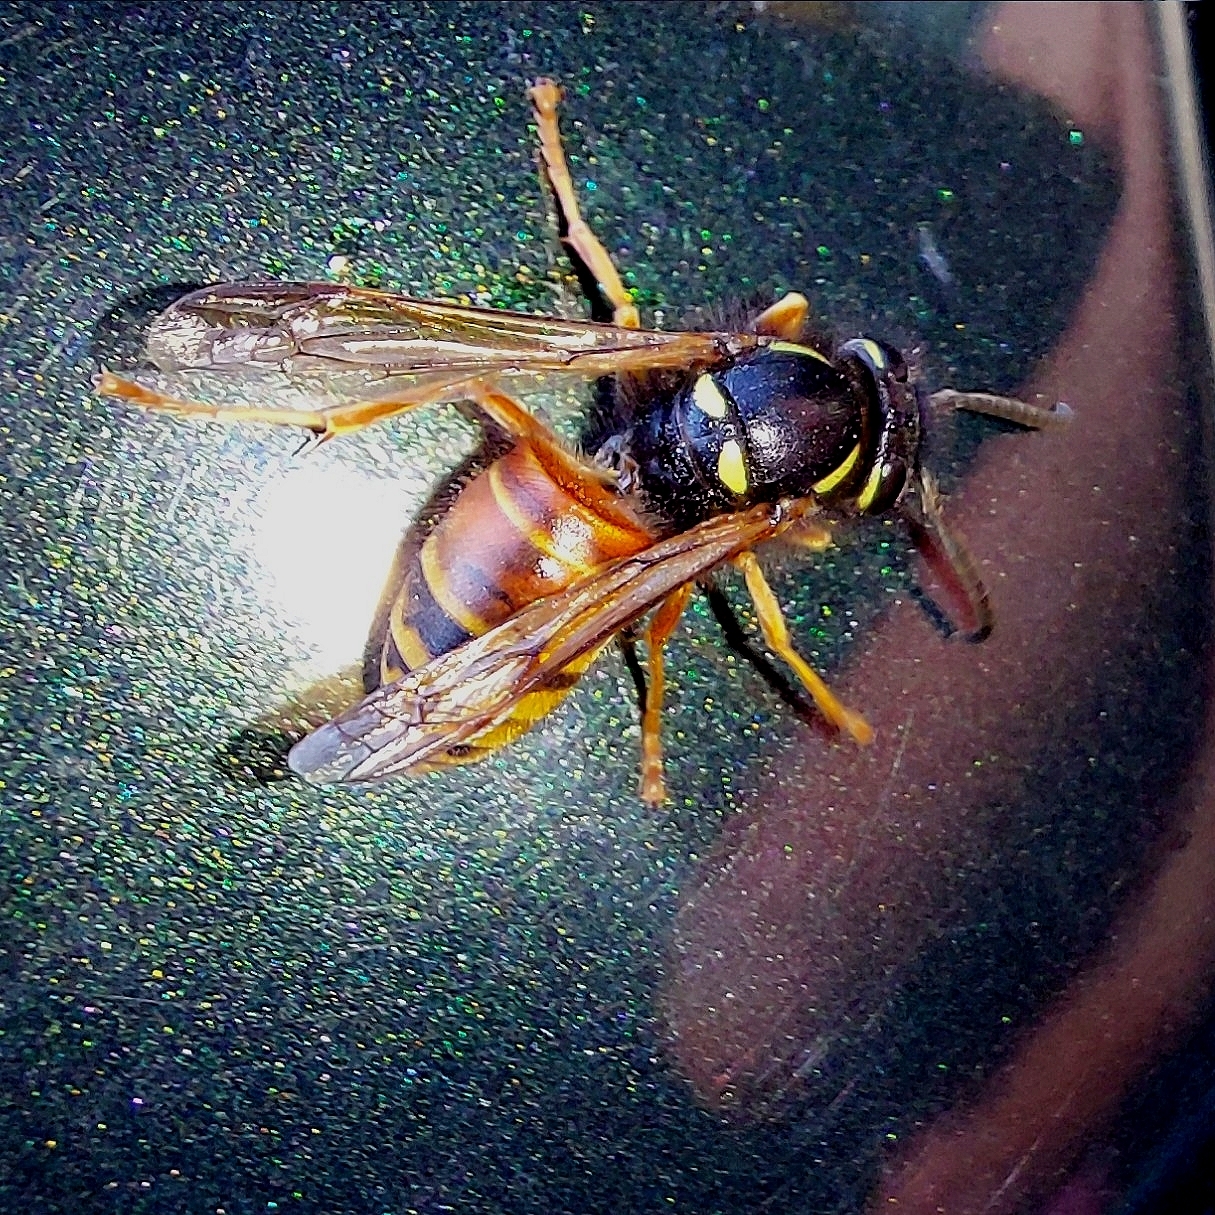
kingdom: Animalia
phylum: Arthropoda
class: Insecta
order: Hymenoptera
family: Vespidae
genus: Vespula
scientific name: Vespula rufa
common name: Red wasp
